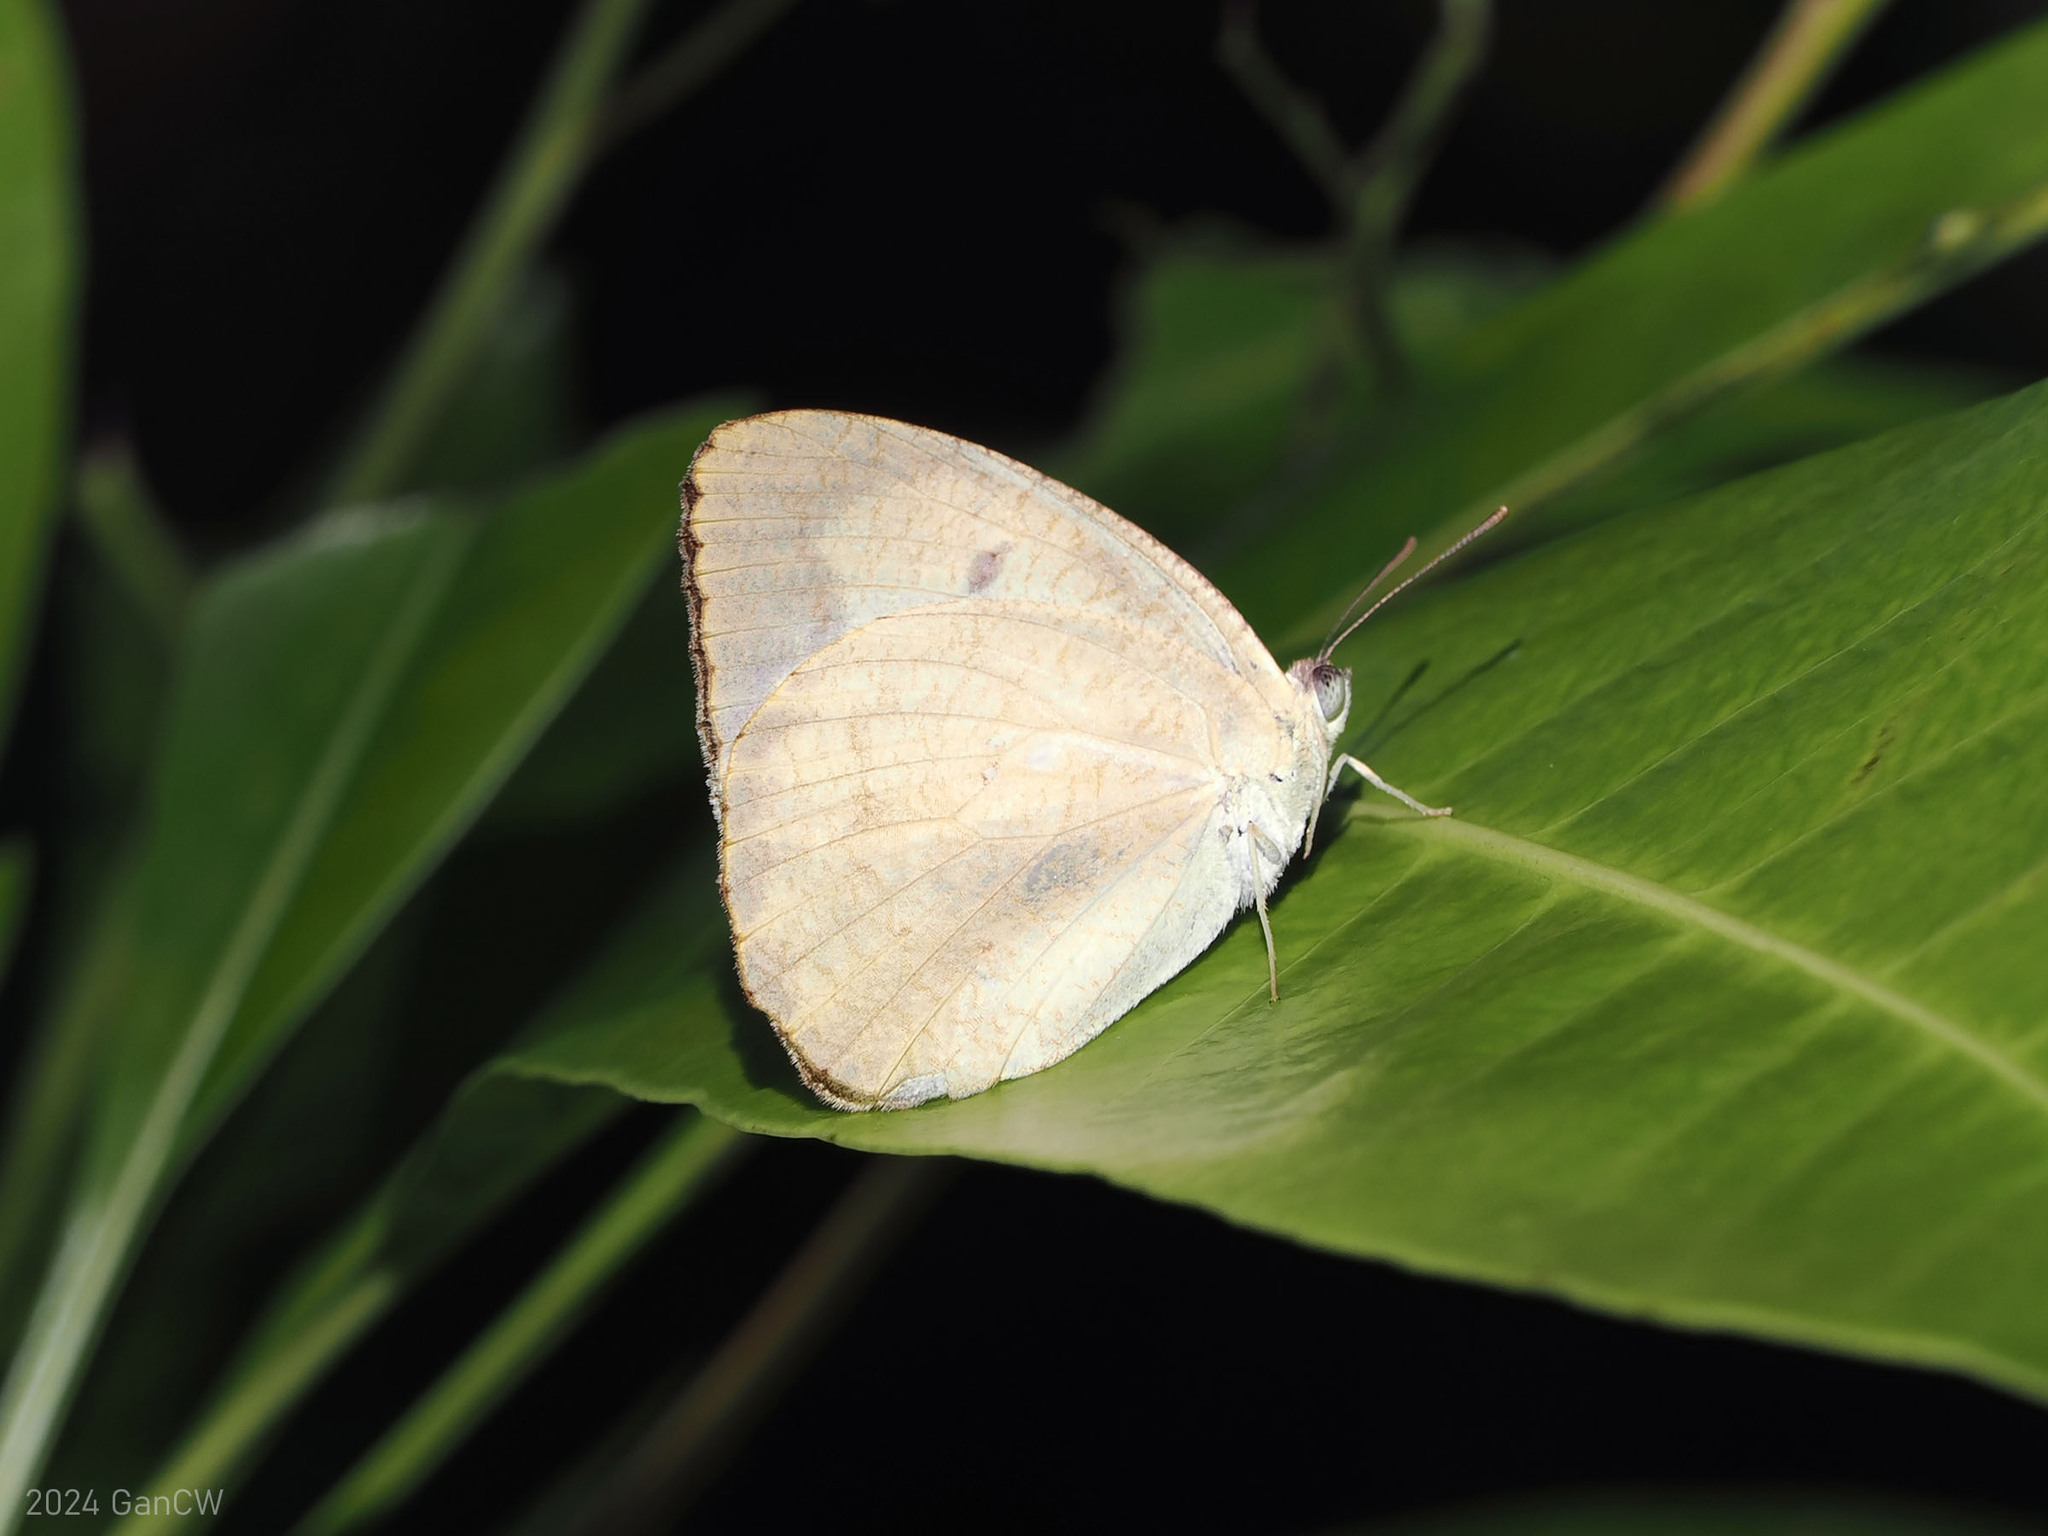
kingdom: Animalia
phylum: Arthropoda
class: Insecta
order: Lepidoptera
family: Pieridae
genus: Catopsilia
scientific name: Catopsilia pyranthe
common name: Mottled emigrant
